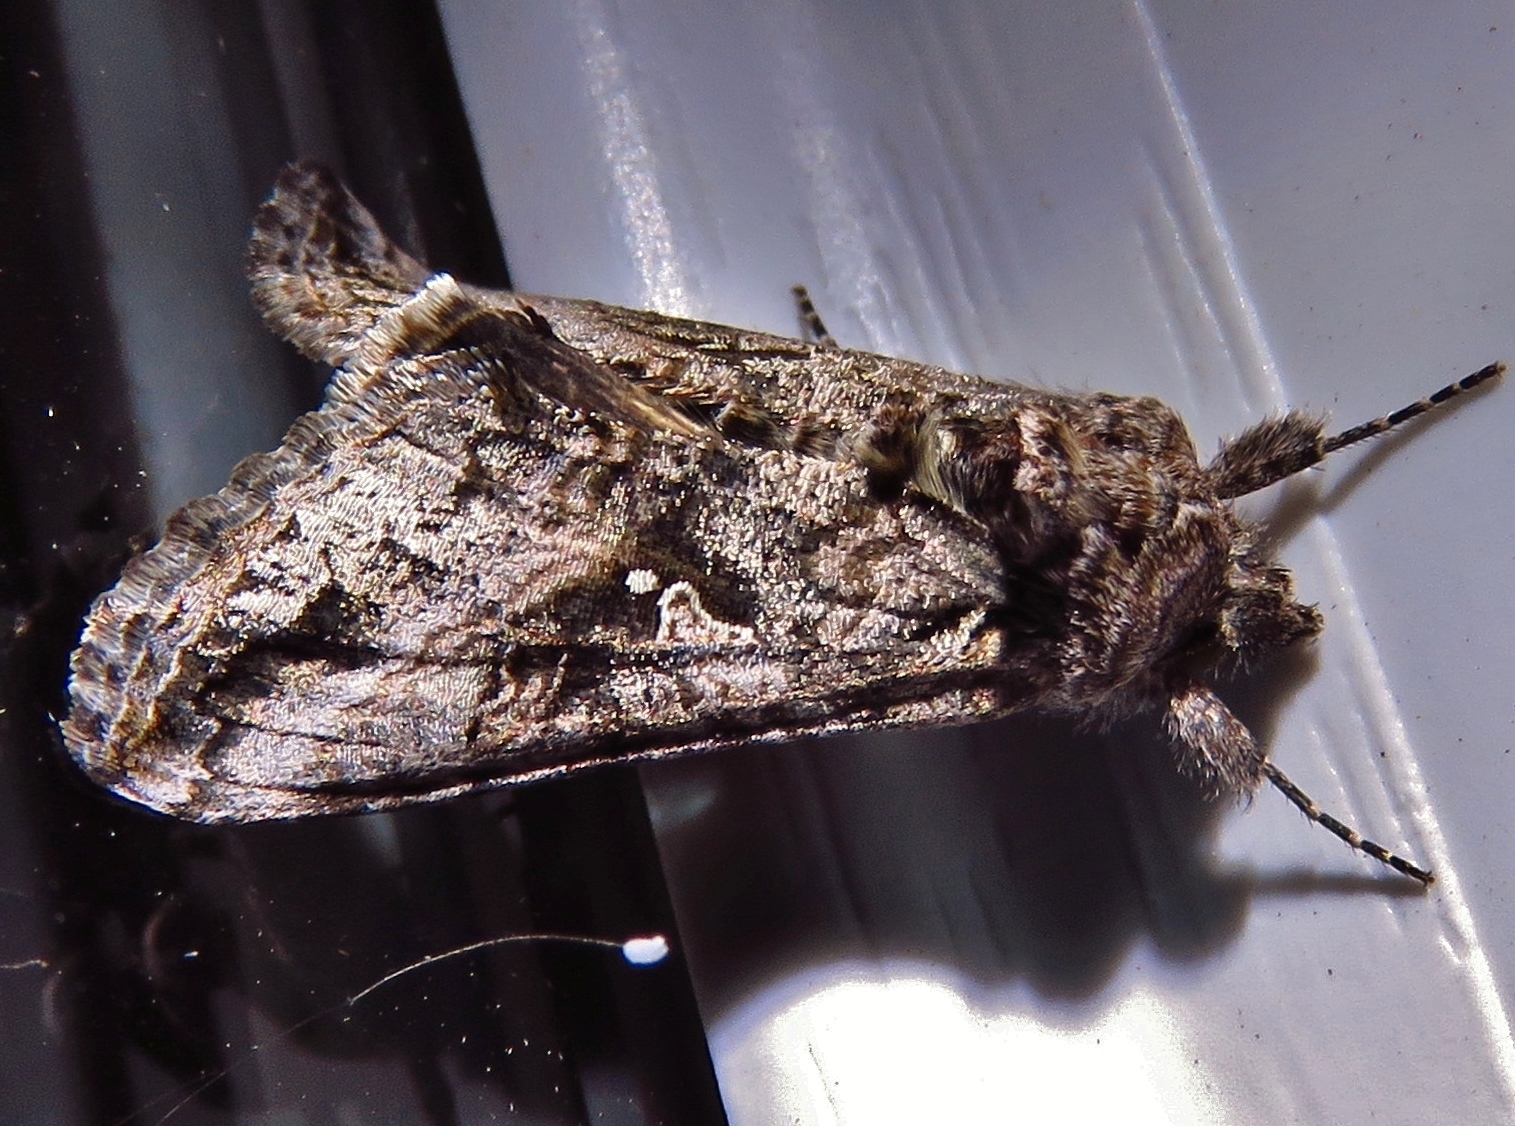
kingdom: Animalia
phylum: Arthropoda
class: Insecta
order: Lepidoptera
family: Noctuidae
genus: Rachiplusia
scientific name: Rachiplusia ou
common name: Gray looper moth
